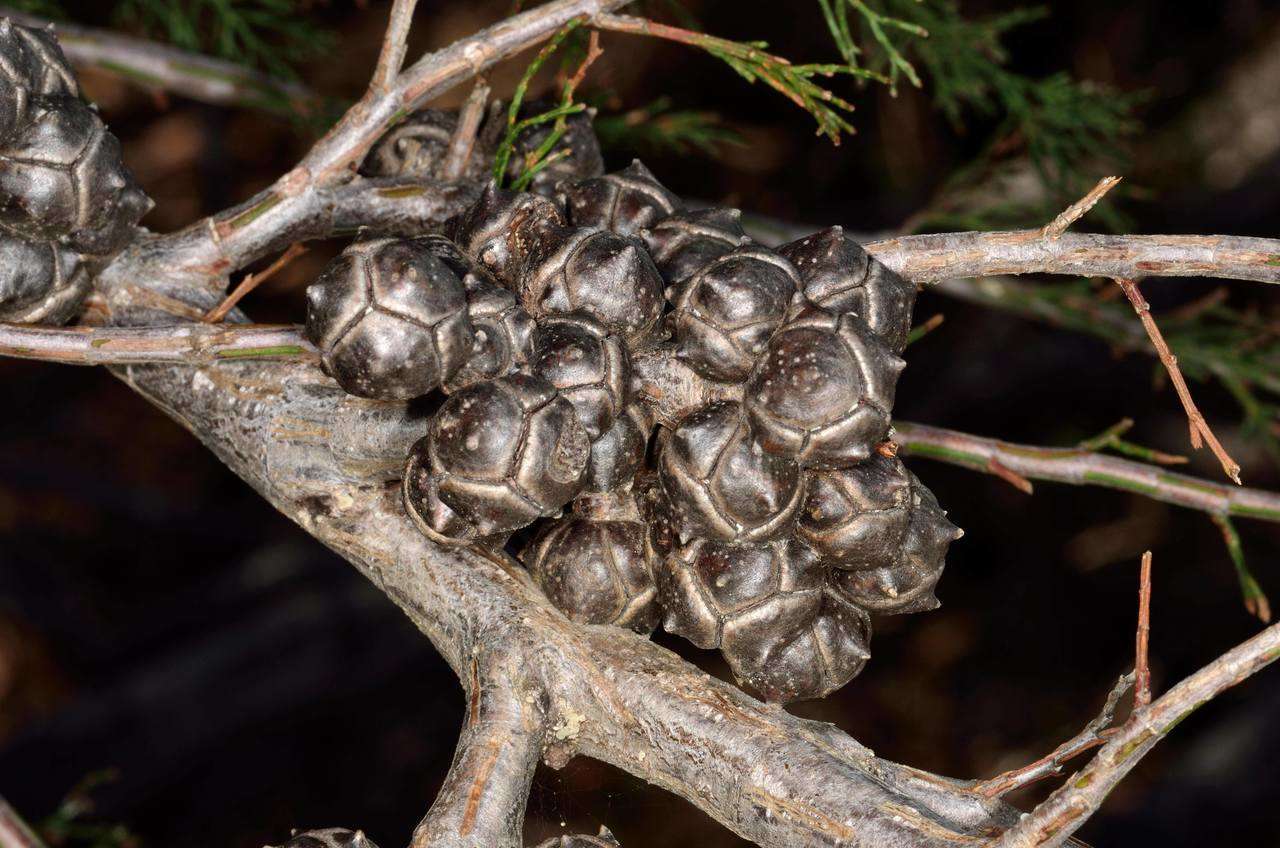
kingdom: Plantae
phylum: Tracheophyta
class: Pinopsida
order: Pinales
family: Cupressaceae
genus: Callitris
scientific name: Callitris rhomboidea
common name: Illawara mountain pine
